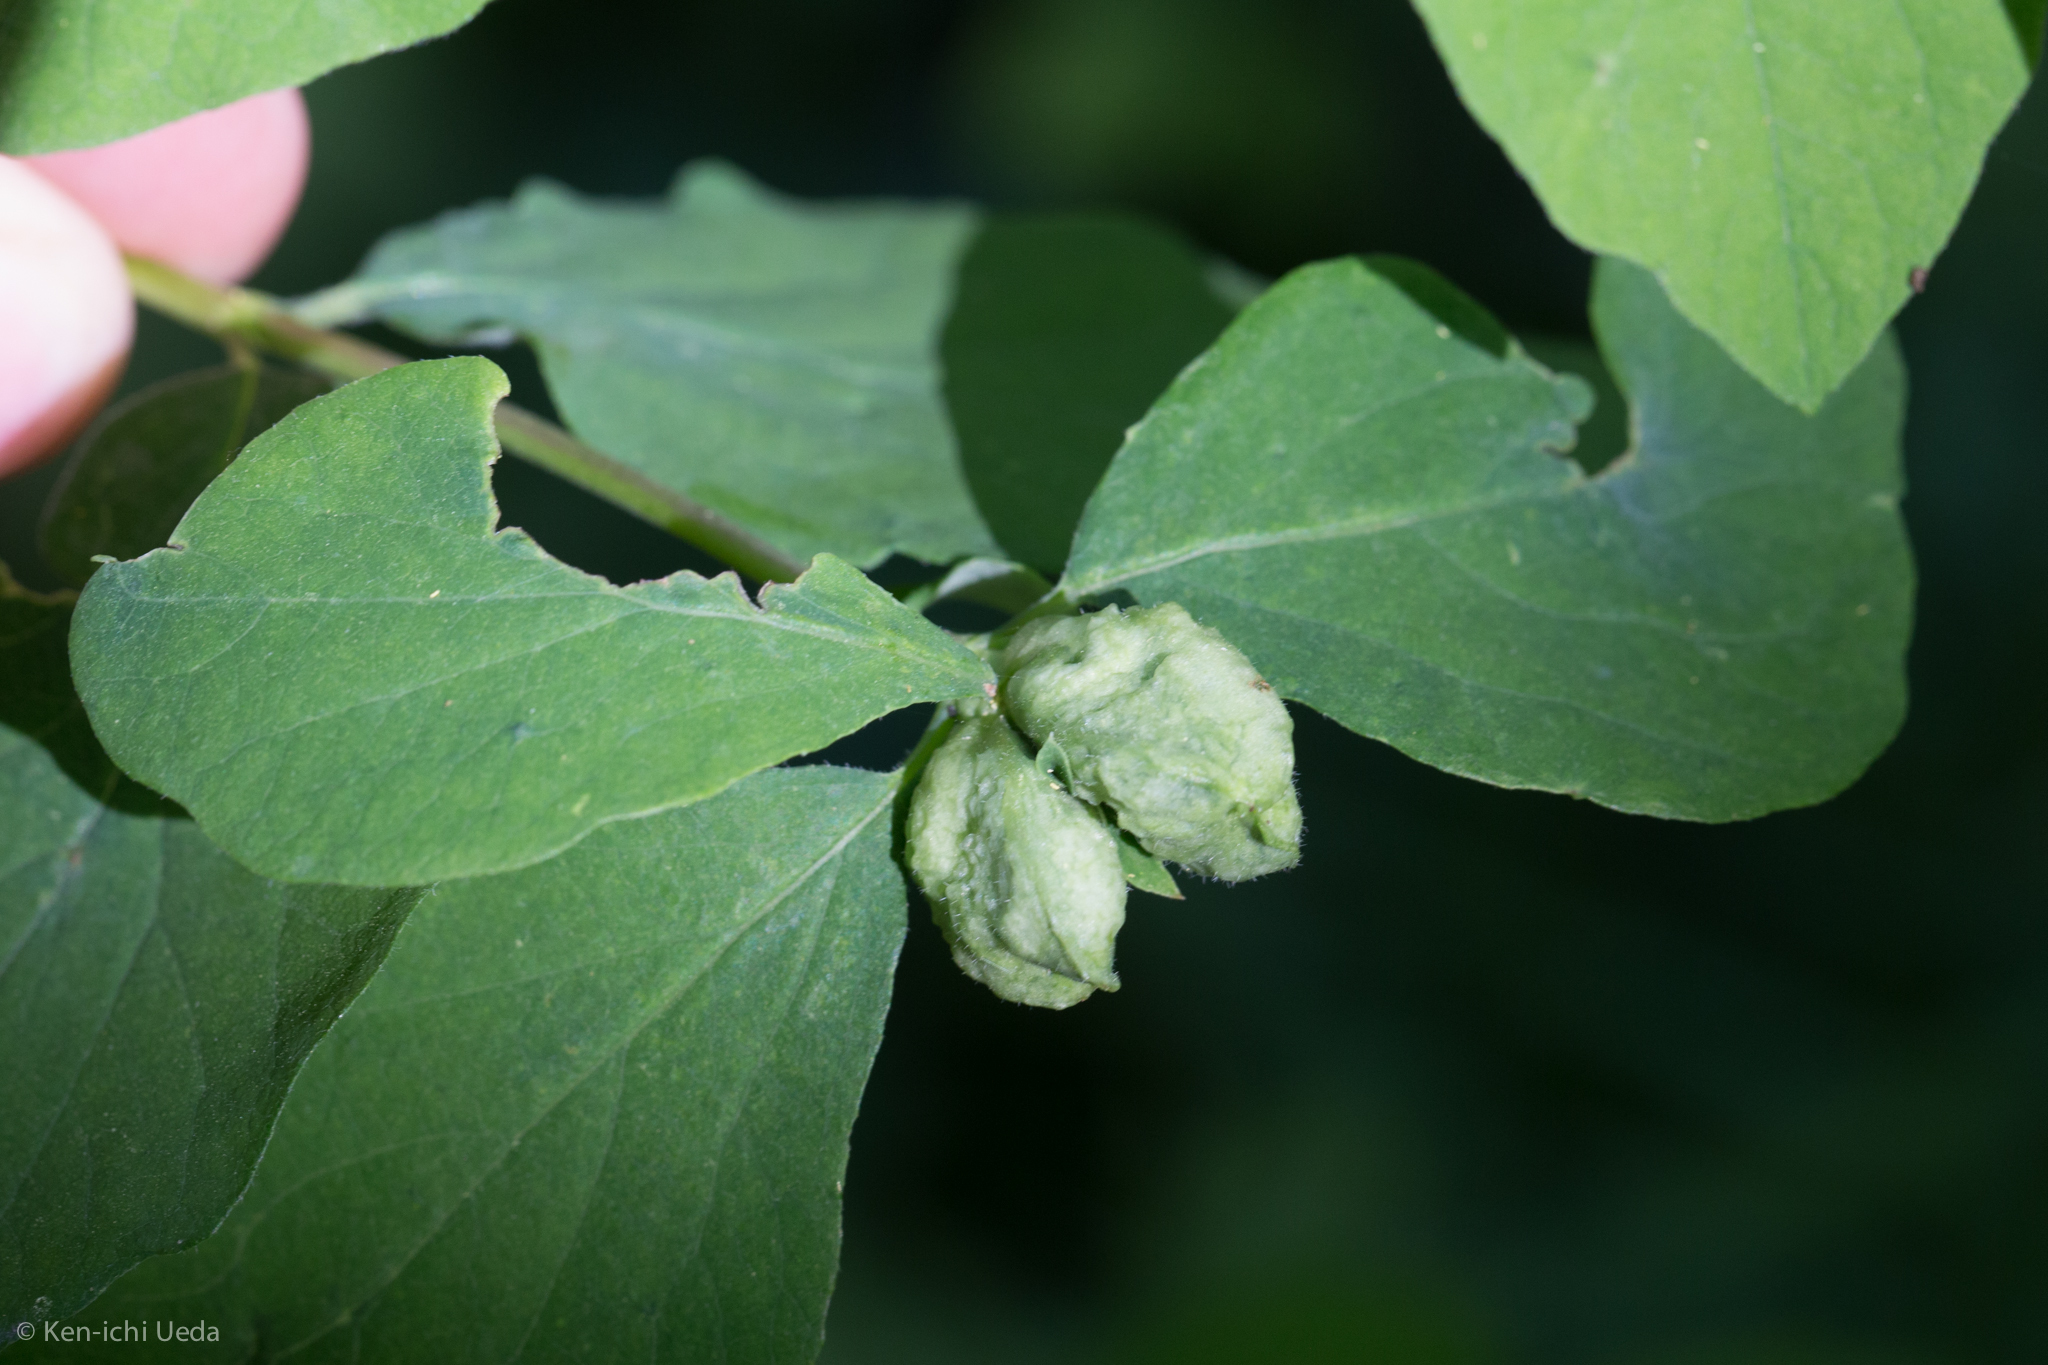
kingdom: Animalia
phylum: Arthropoda
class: Insecta
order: Hymenoptera
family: Tenthredinidae
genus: Blennogeneris
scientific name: Blennogeneris spissipes
